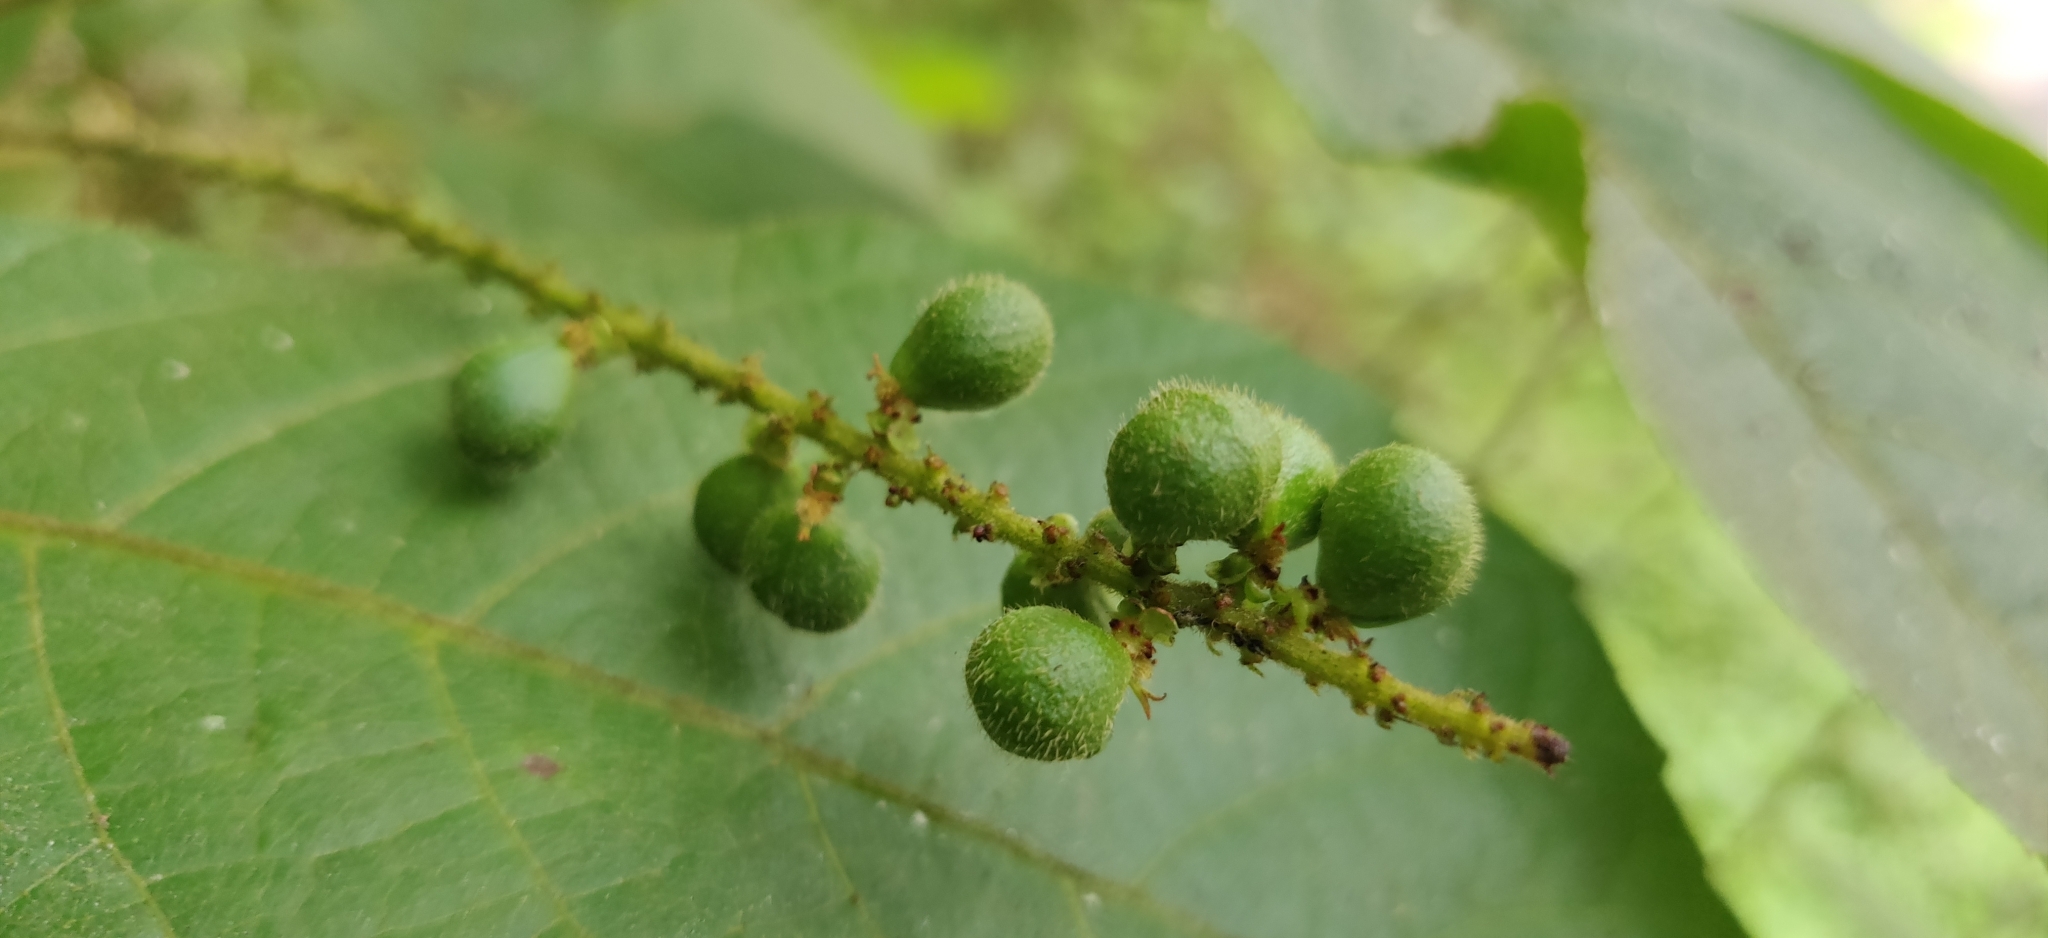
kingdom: Plantae
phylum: Tracheophyta
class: Magnoliopsida
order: Sapindales
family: Sapindaceae
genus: Allophylus
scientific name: Allophylus rheedei
